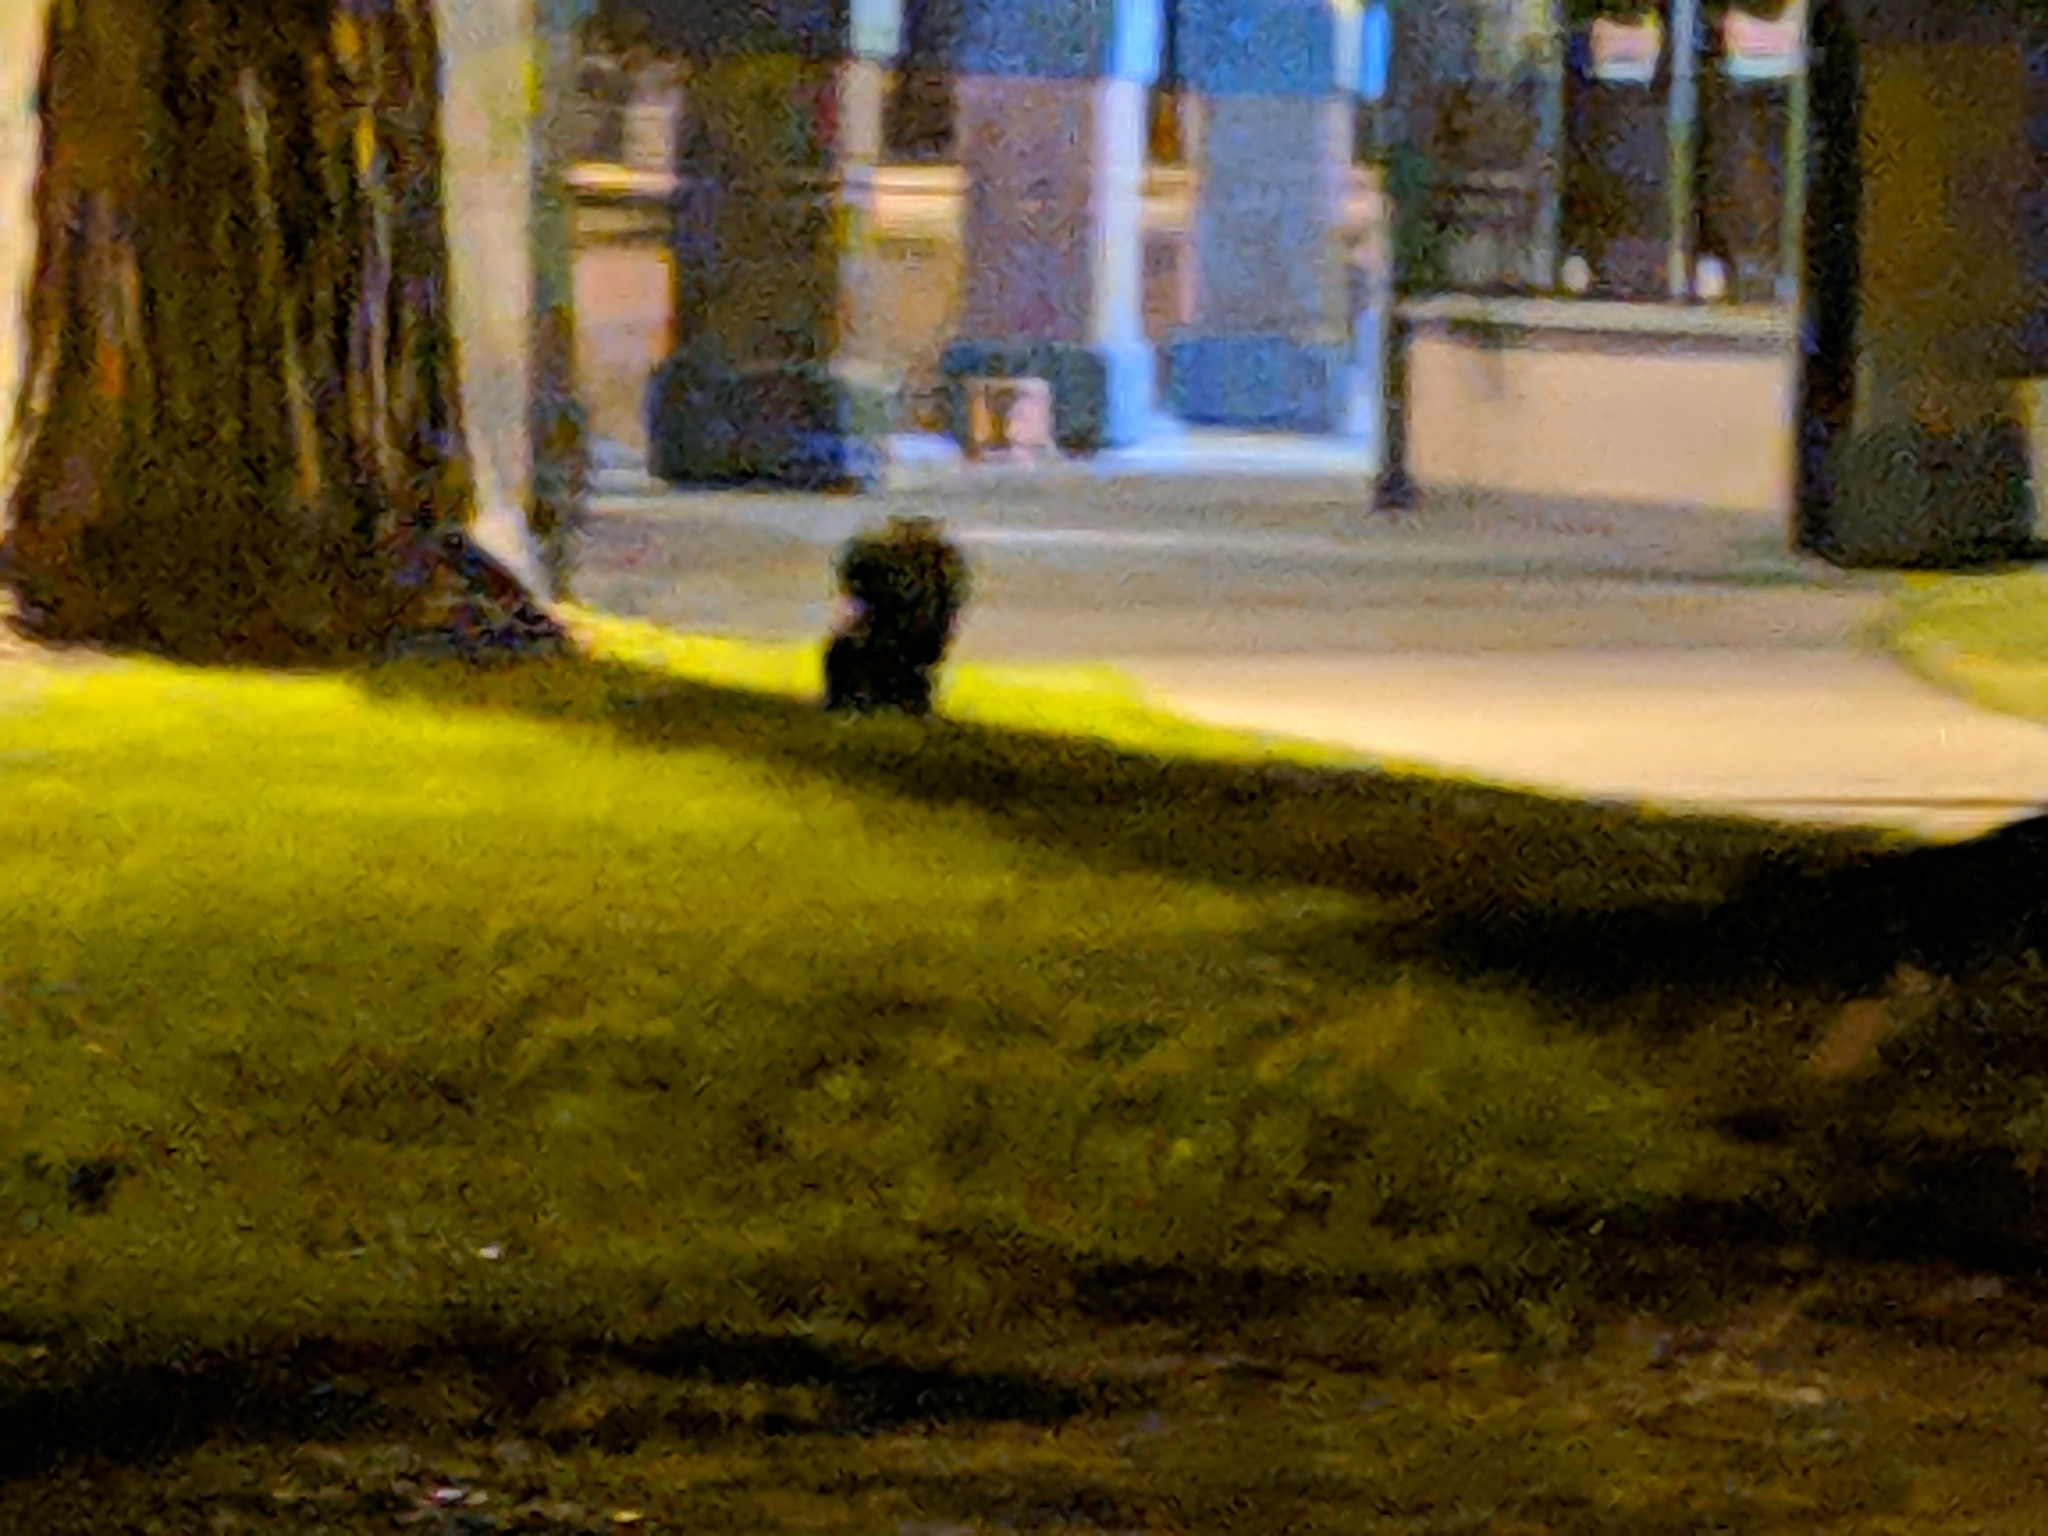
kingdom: Animalia
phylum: Chordata
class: Mammalia
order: Carnivora
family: Mephitidae
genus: Mephitis
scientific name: Mephitis mephitis
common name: Striped skunk
